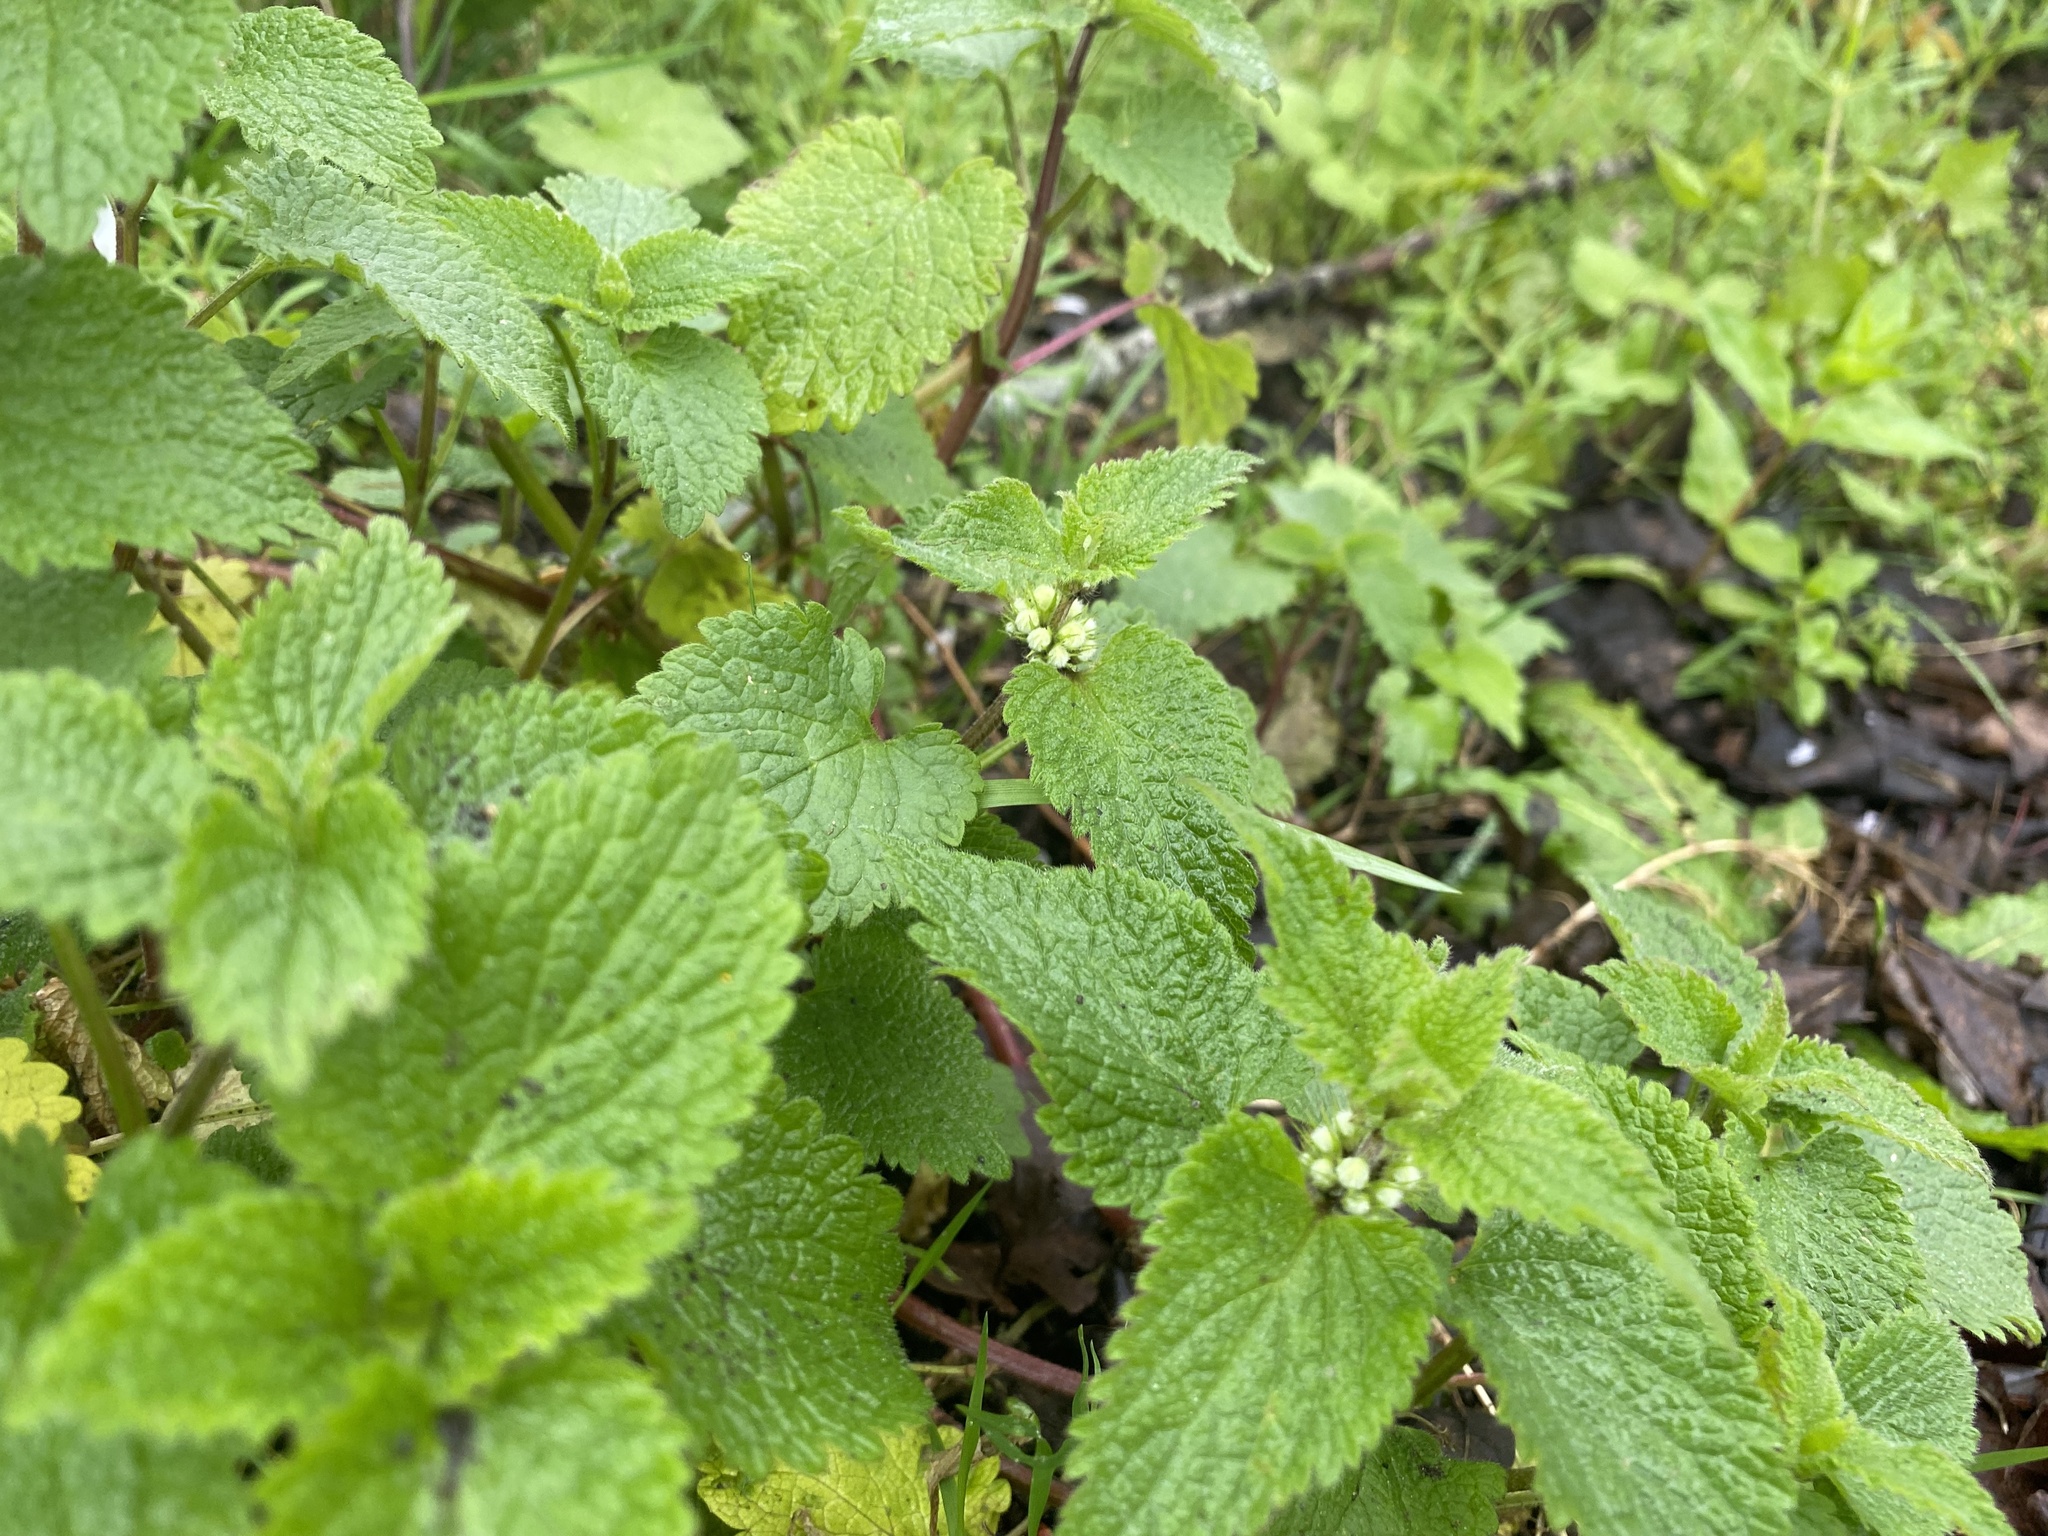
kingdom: Plantae
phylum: Tracheophyta
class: Magnoliopsida
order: Lamiales
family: Lamiaceae
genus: Lamium
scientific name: Lamium album
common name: White dead-nettle
